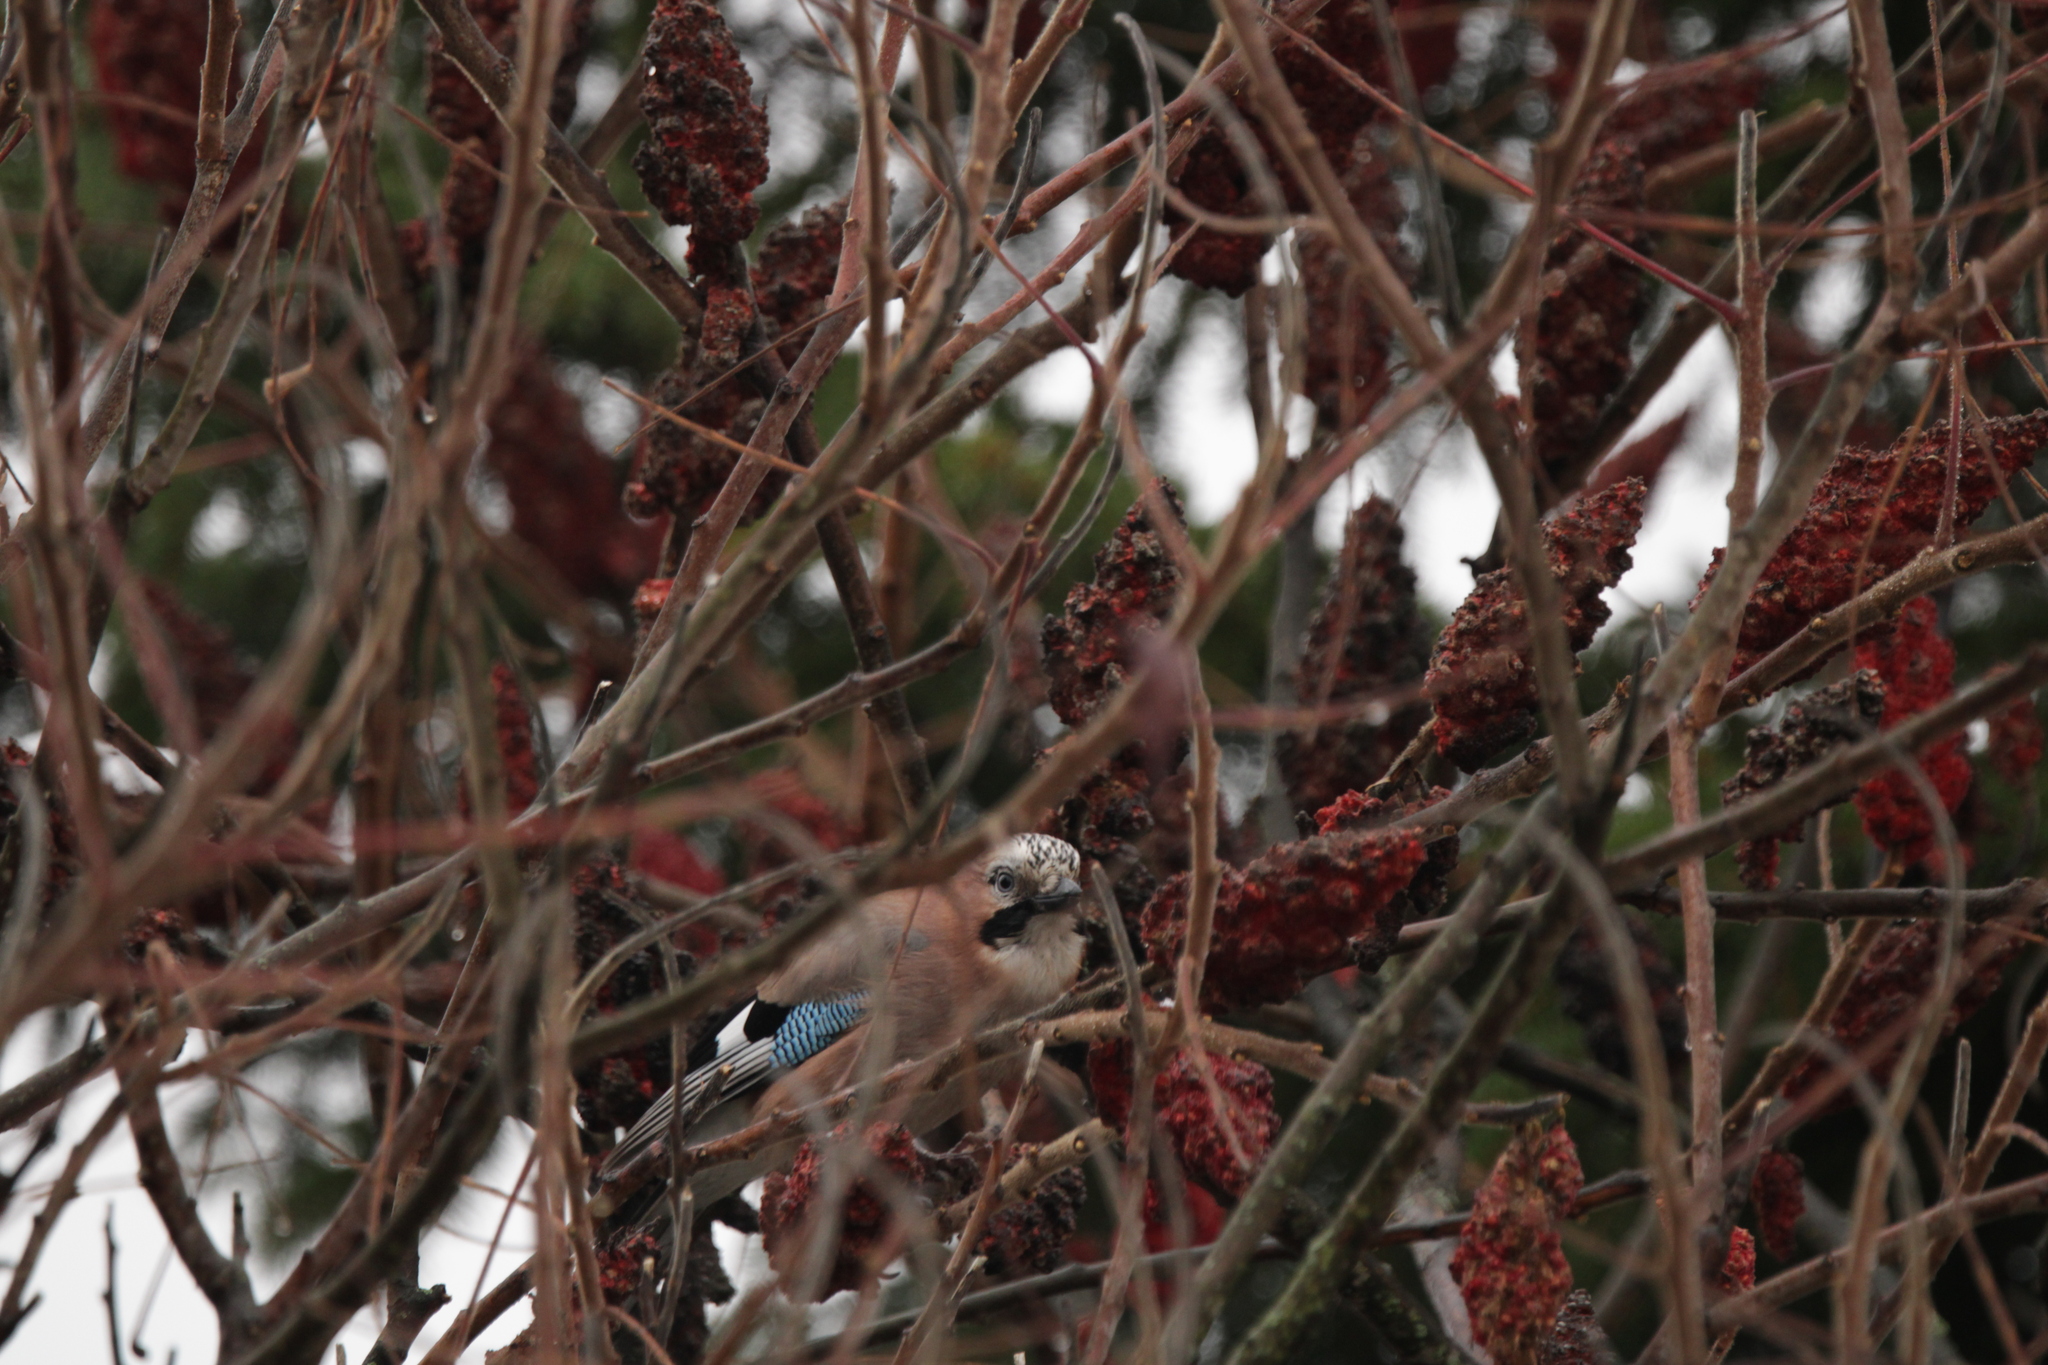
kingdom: Animalia
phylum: Chordata
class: Aves
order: Passeriformes
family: Corvidae
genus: Garrulus
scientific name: Garrulus glandarius
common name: Eurasian jay
